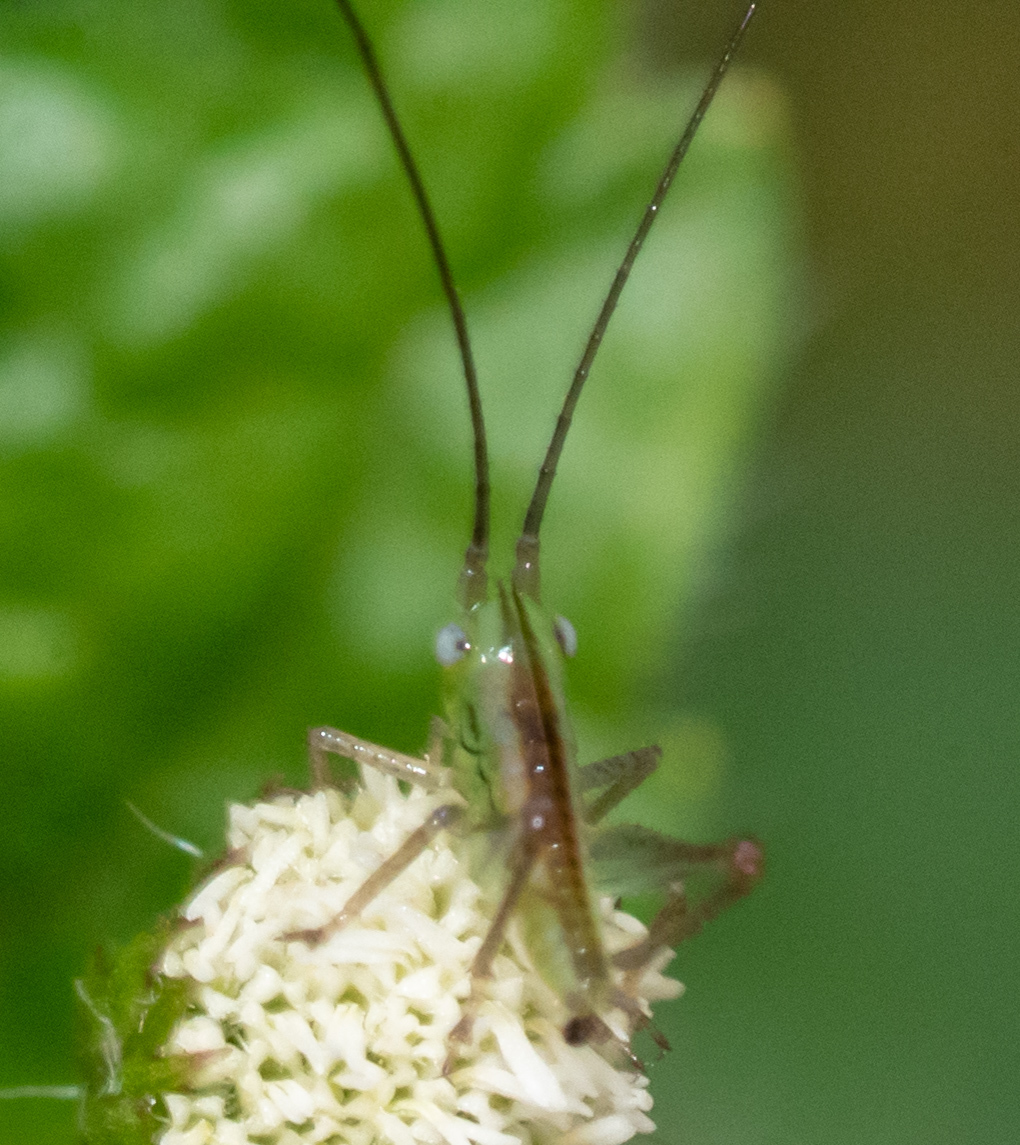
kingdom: Animalia
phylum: Arthropoda
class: Insecta
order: Orthoptera
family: Tettigoniidae
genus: Conocephalus
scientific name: Conocephalus saltator
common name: Katydid
